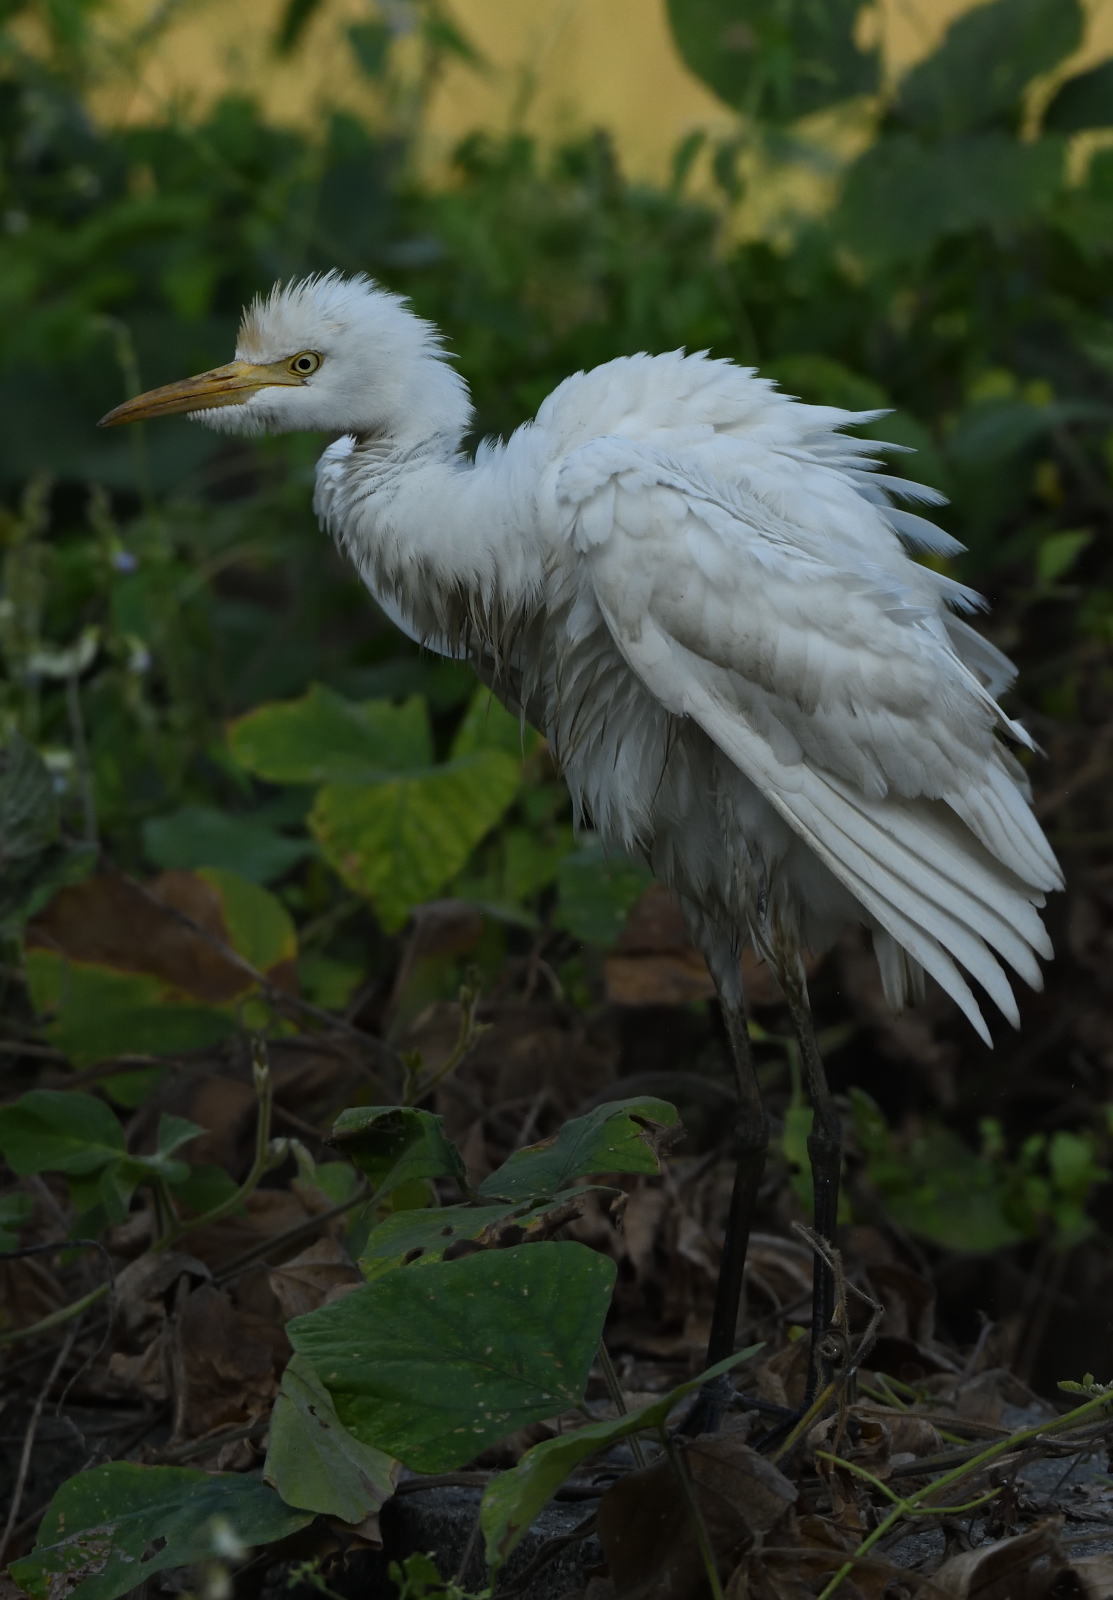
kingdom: Animalia
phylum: Chordata
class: Aves
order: Pelecaniformes
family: Ardeidae
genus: Bubulcus
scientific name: Bubulcus coromandus
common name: Eastern cattle egret
